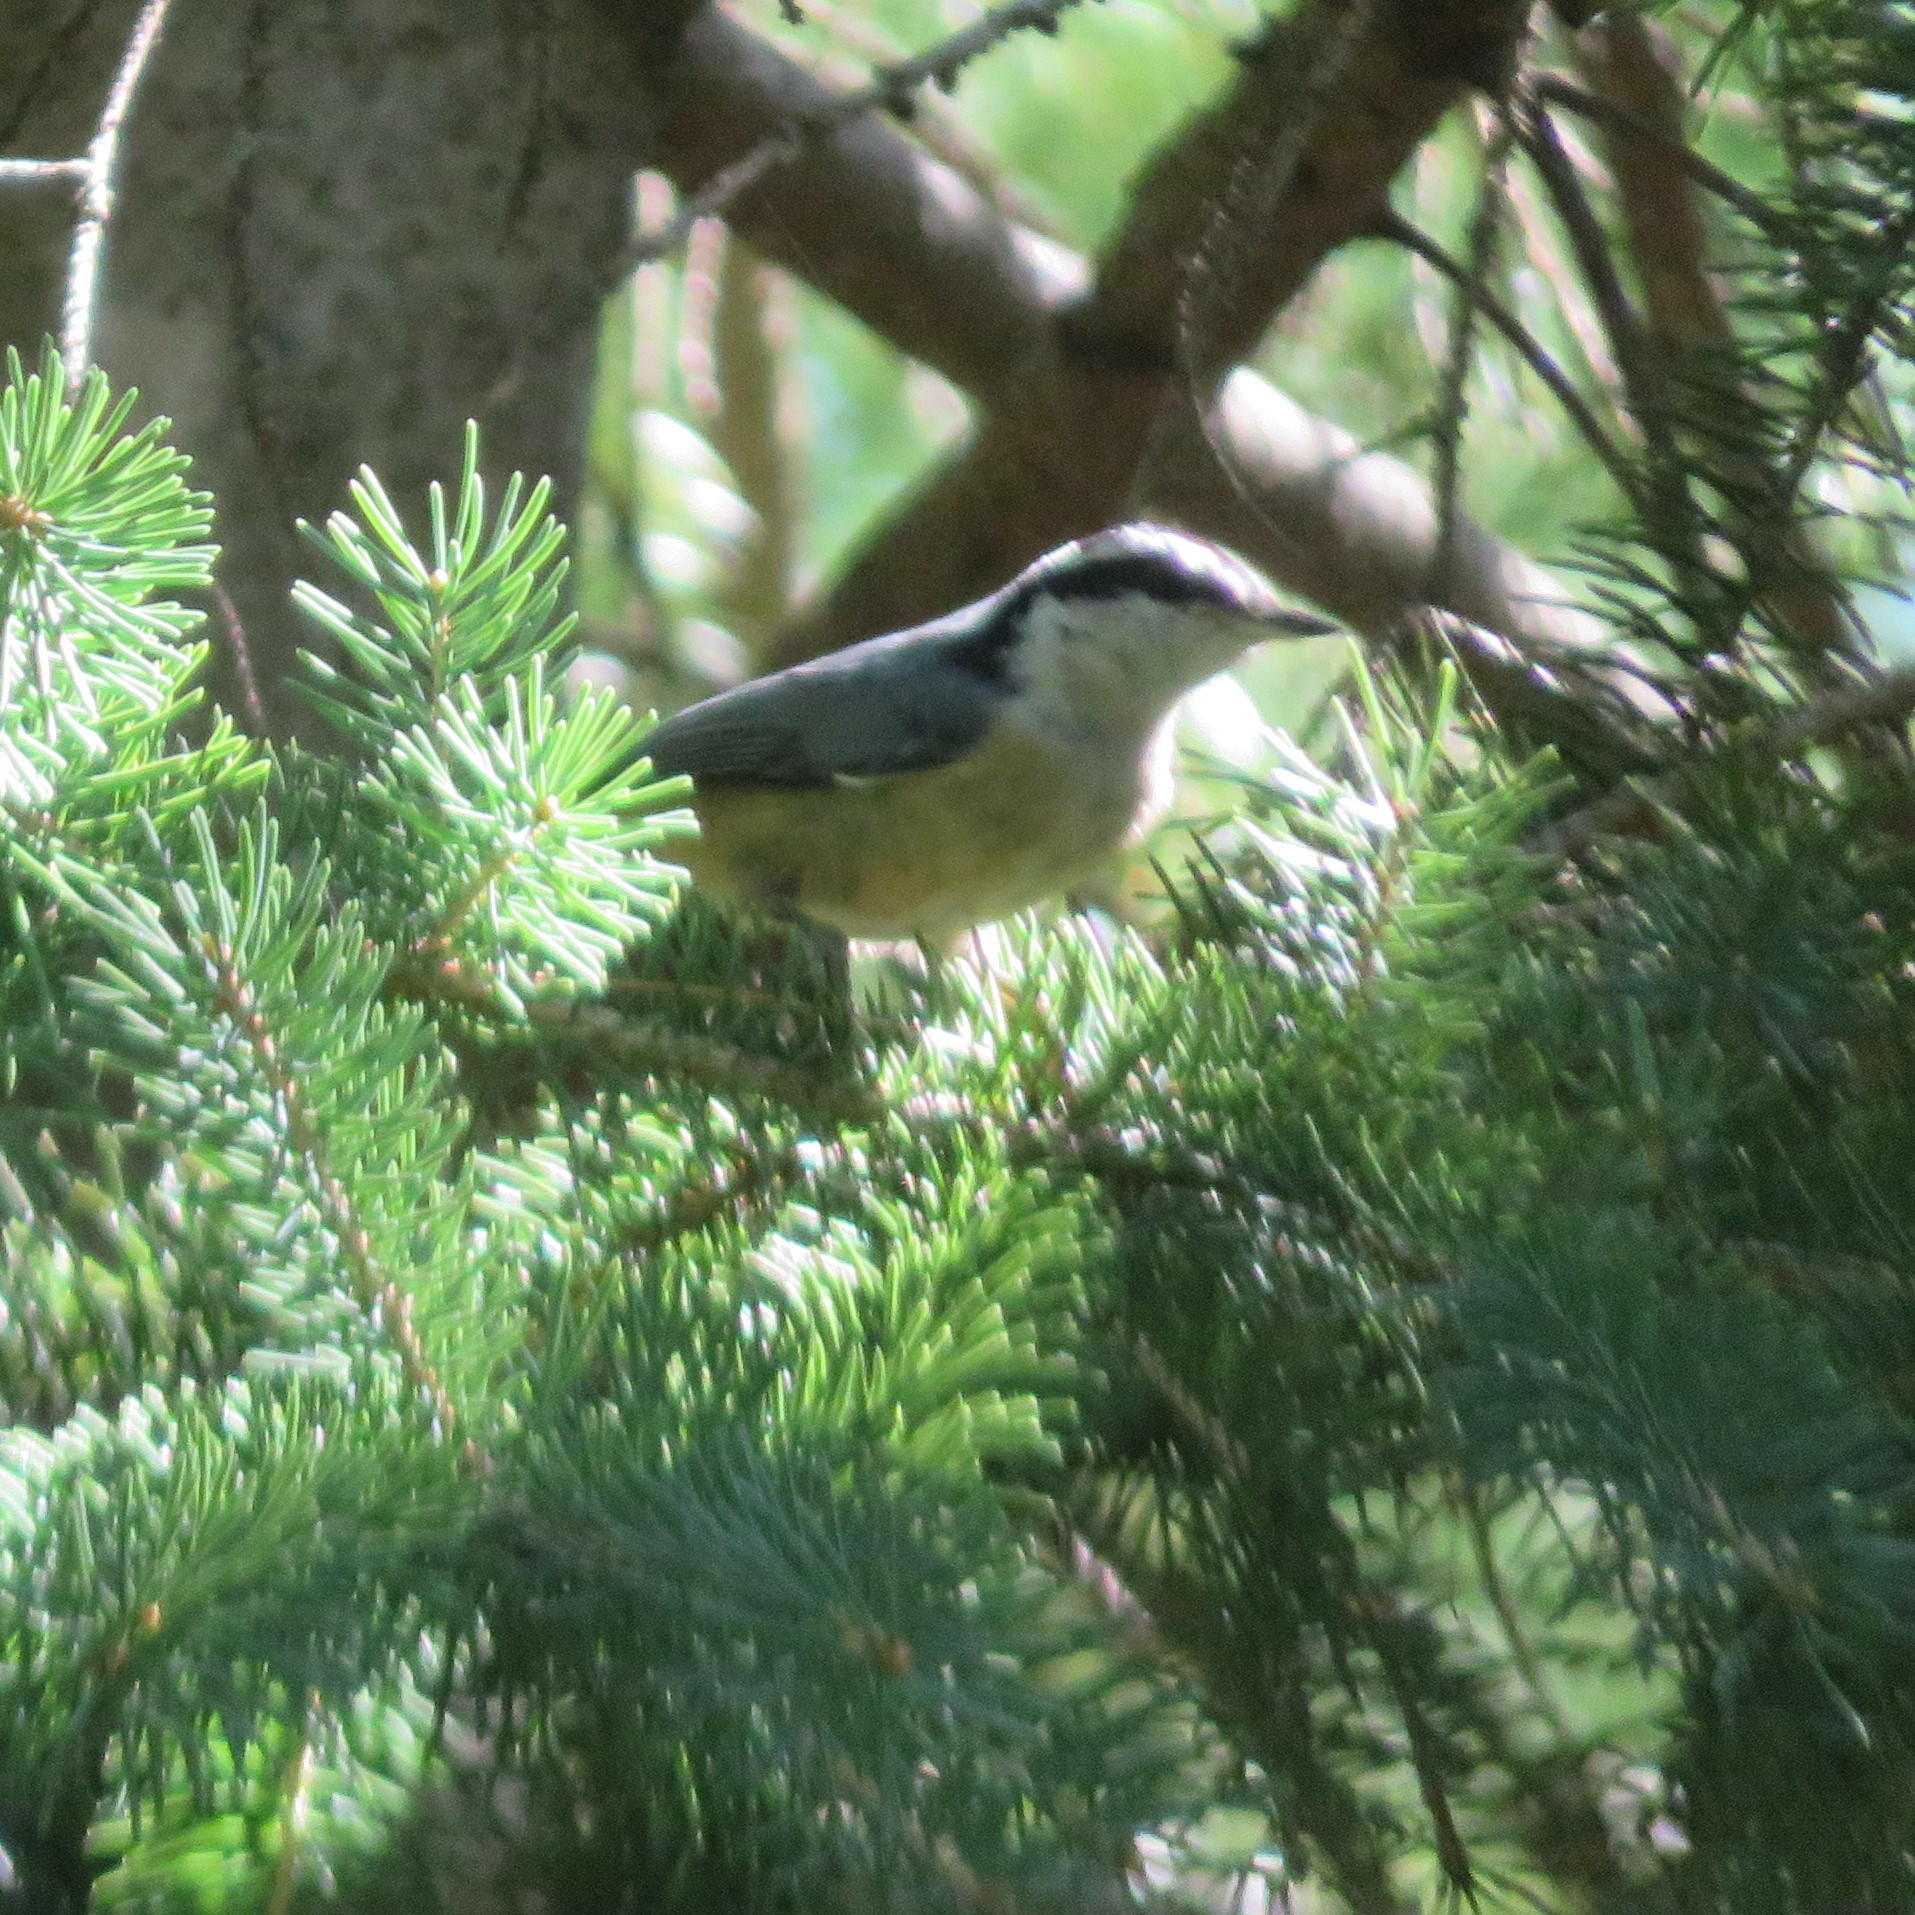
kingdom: Animalia
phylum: Chordata
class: Aves
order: Passeriformes
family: Sittidae
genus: Sitta
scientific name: Sitta canadensis
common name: Red-breasted nuthatch
